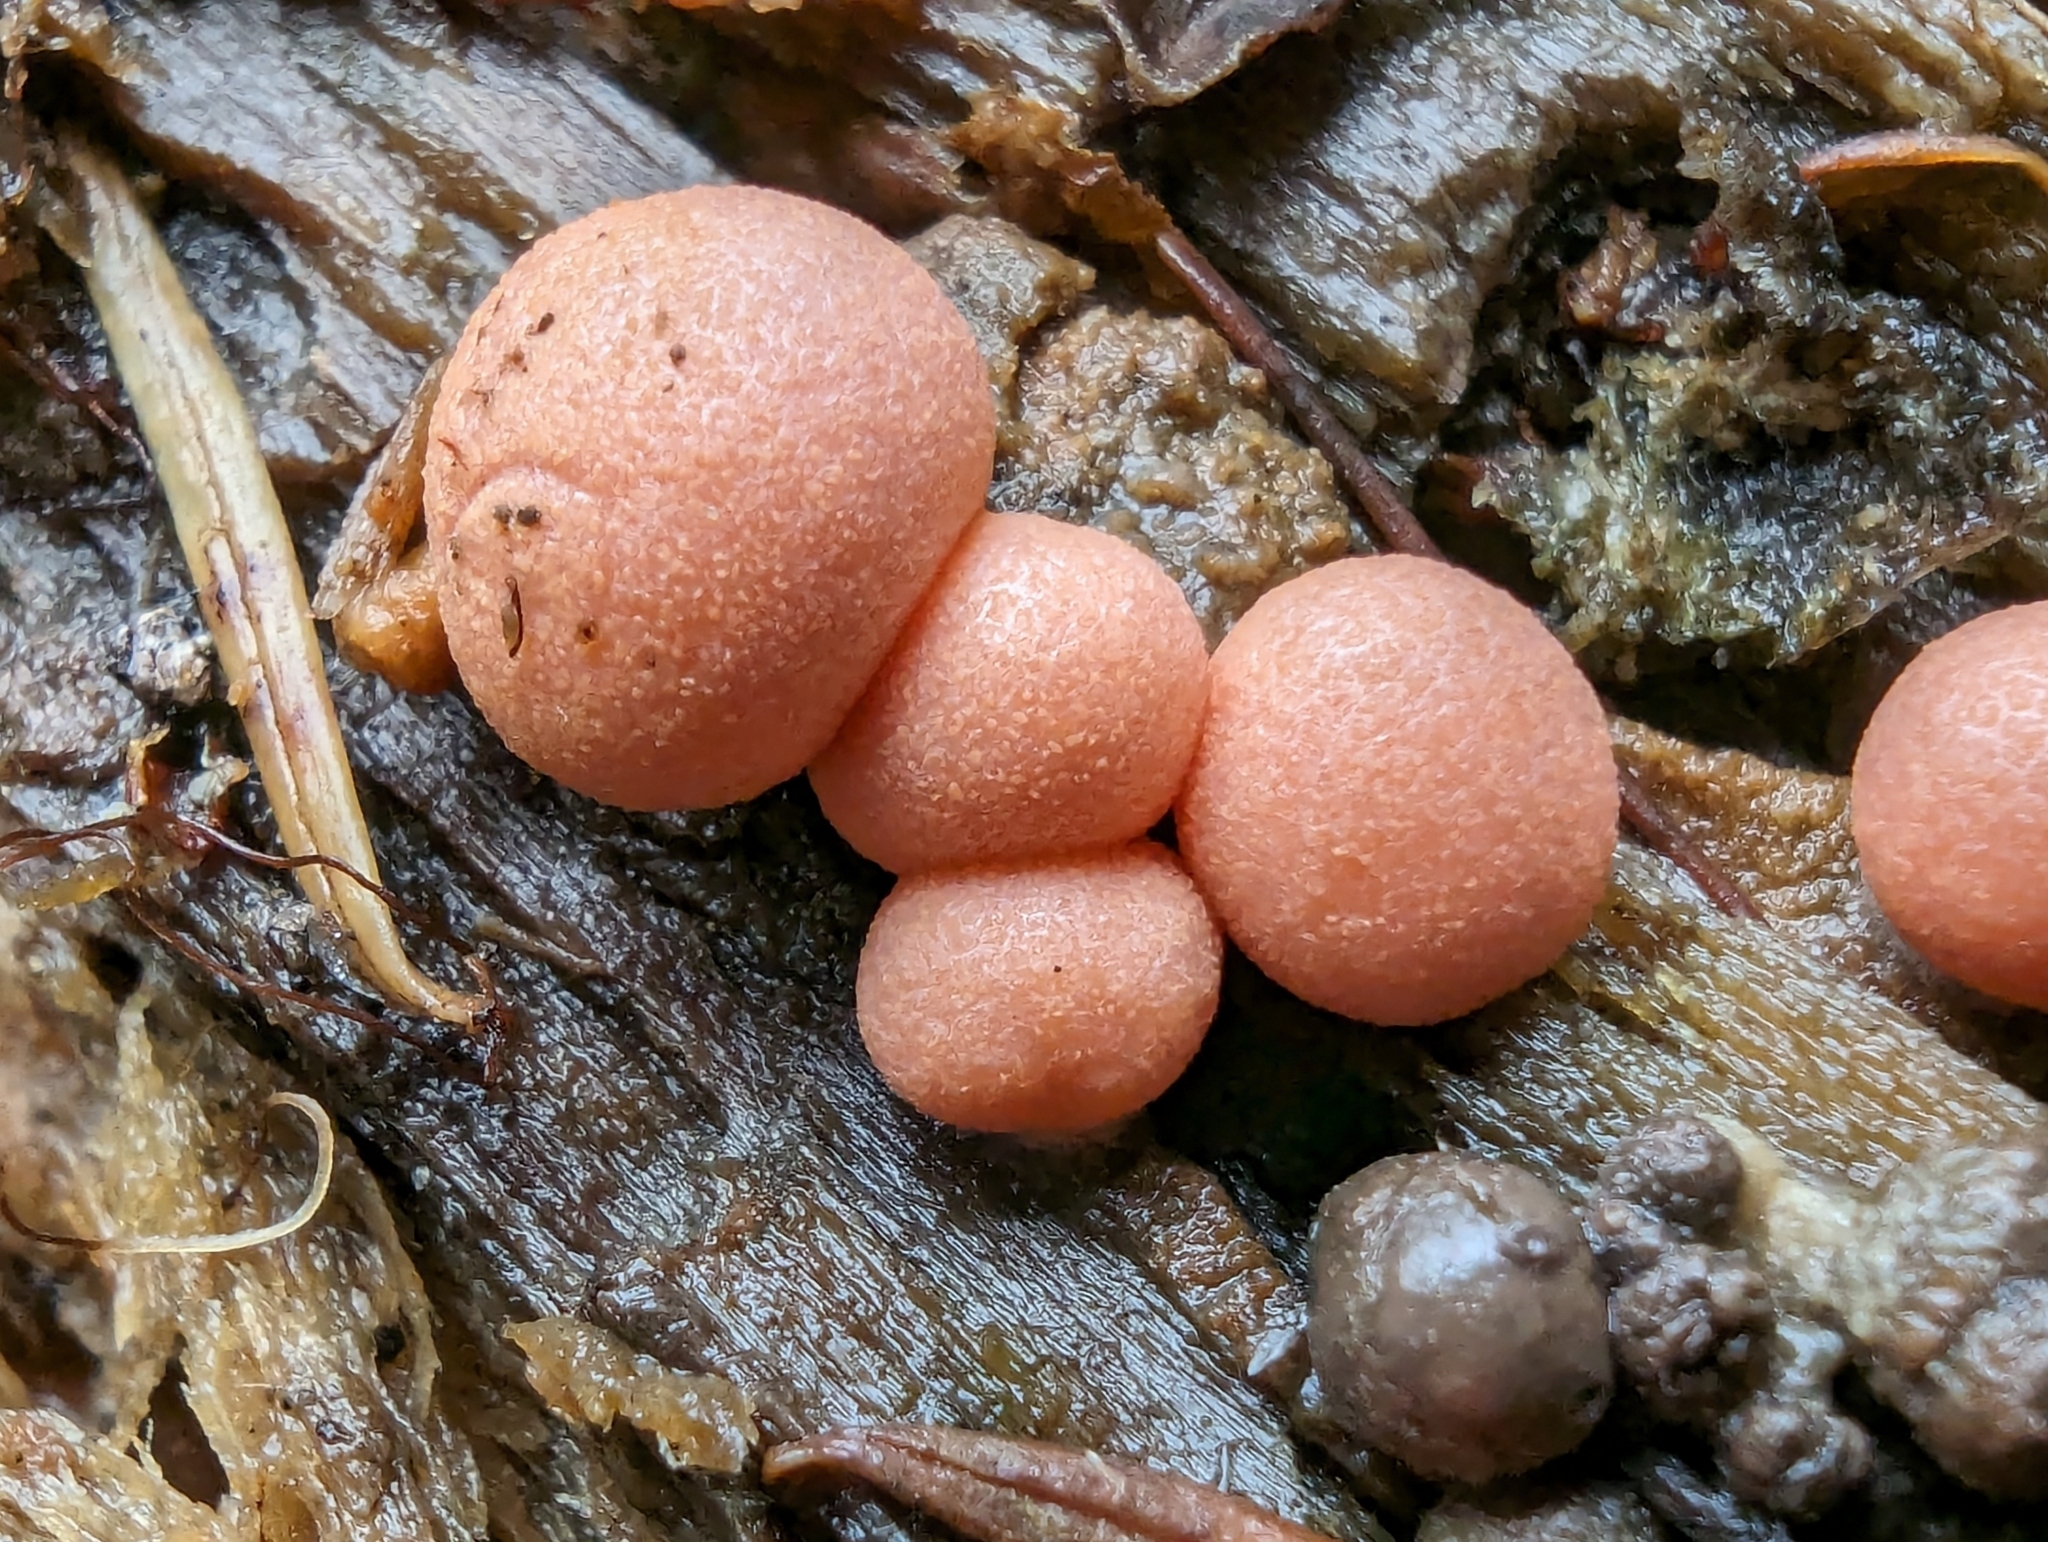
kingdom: Protozoa
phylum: Mycetozoa
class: Myxomycetes
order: Cribrariales
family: Tubiferaceae
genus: Lycogala
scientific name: Lycogala epidendrum
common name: Wolf's milk
